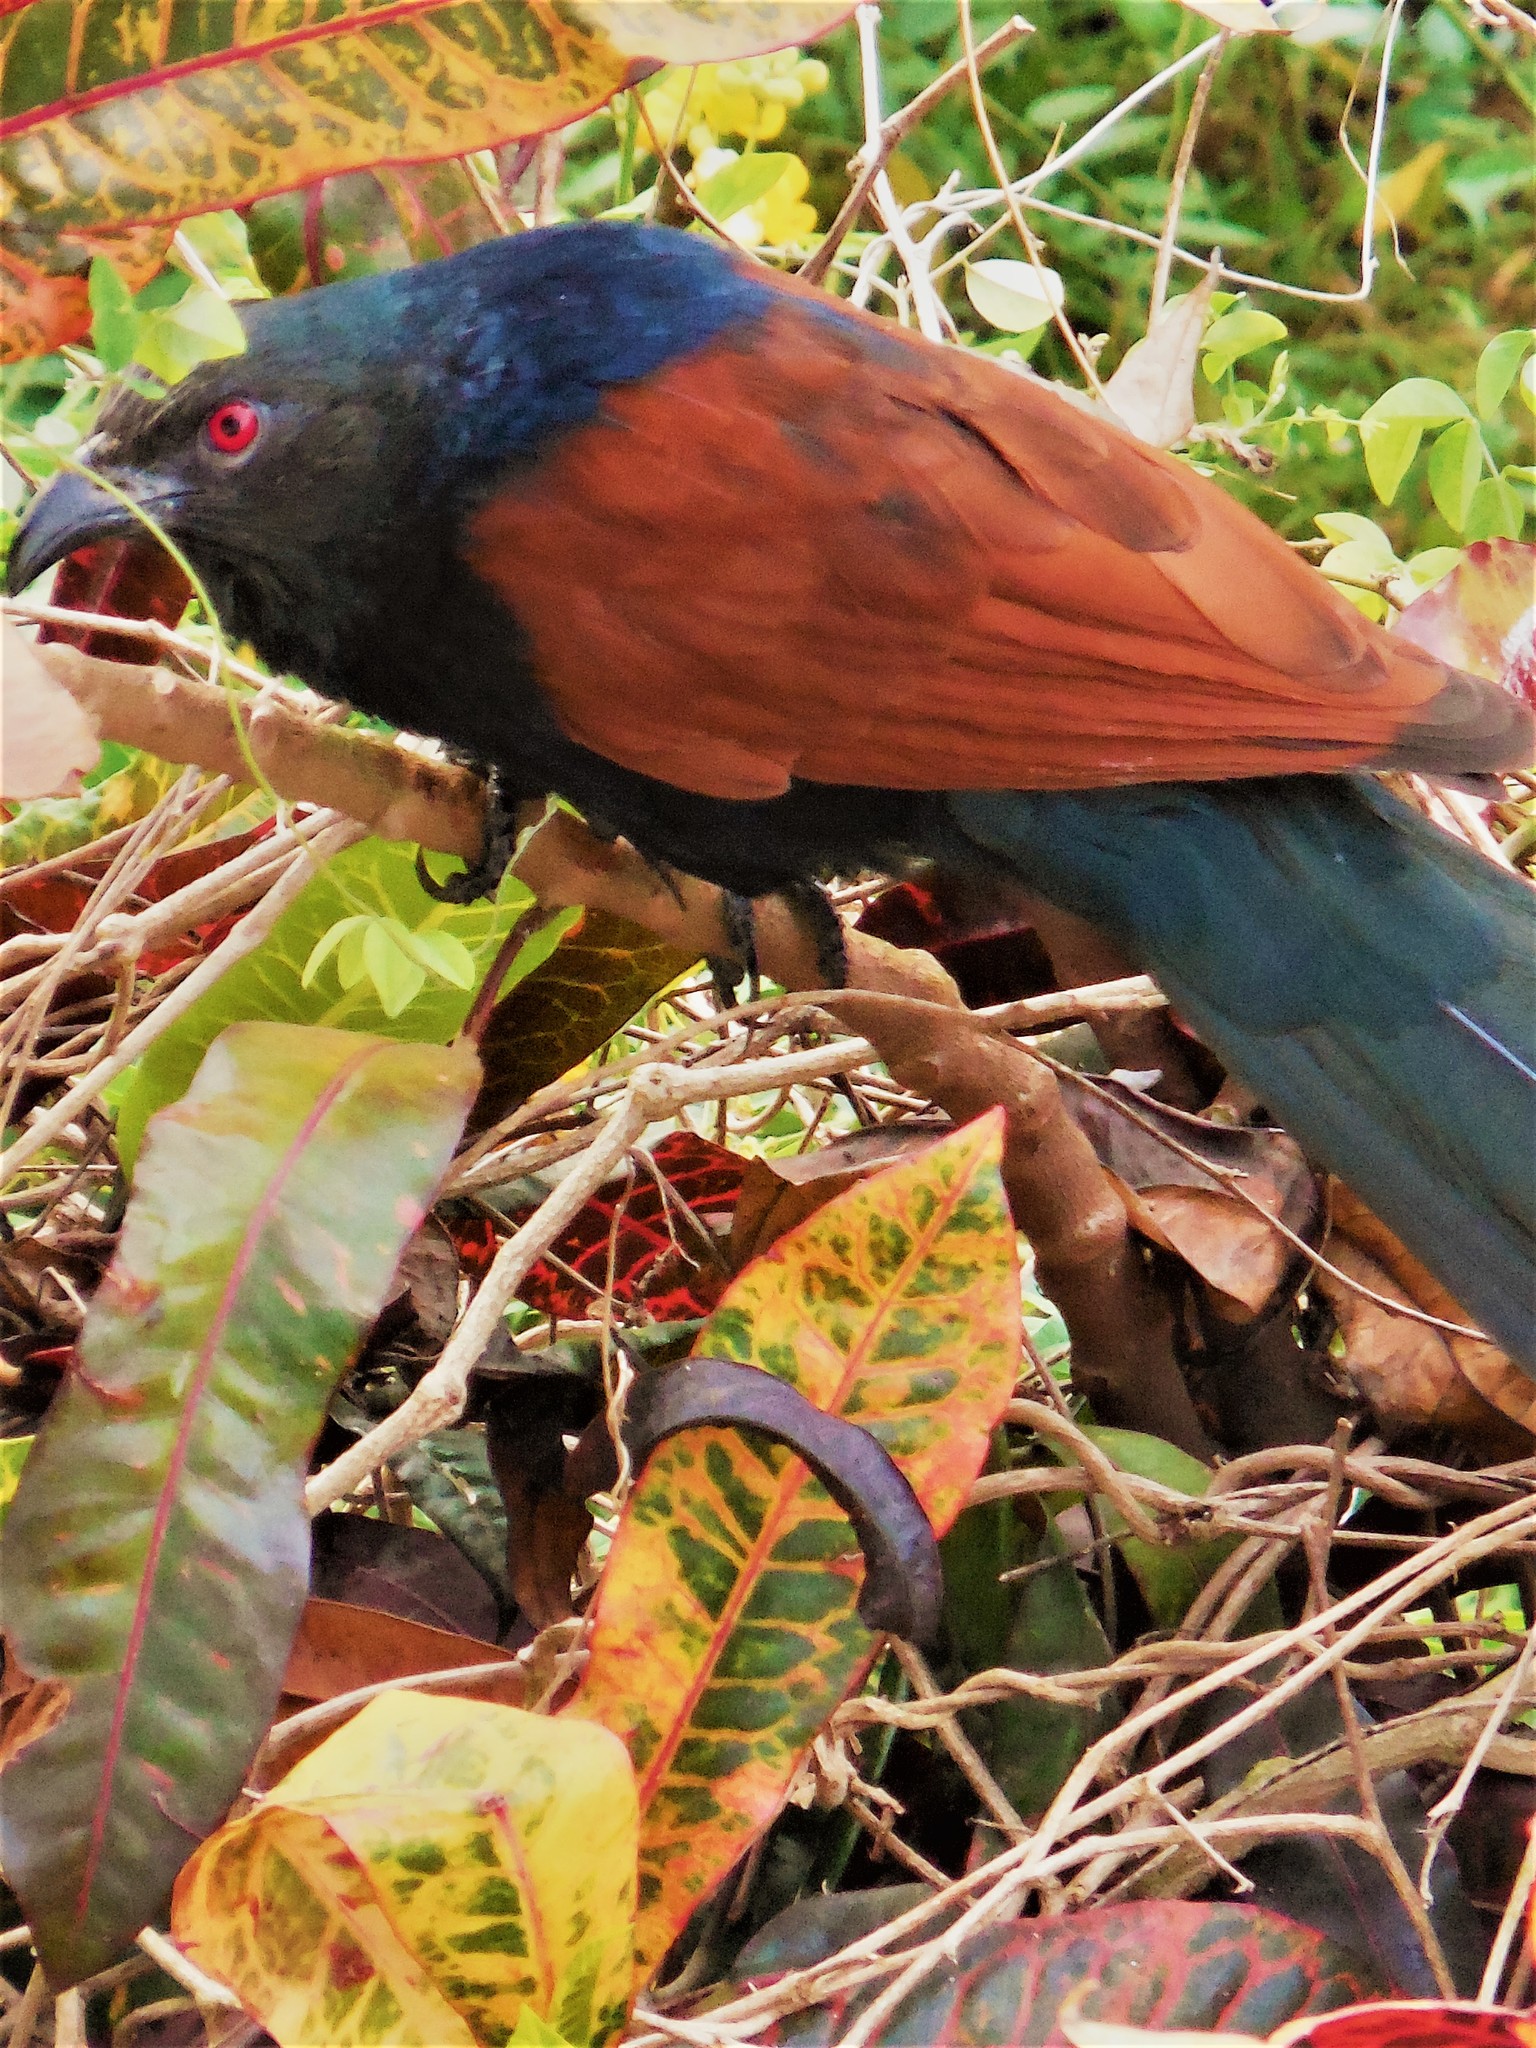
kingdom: Animalia
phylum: Chordata
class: Aves
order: Cuculiformes
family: Cuculidae
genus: Centropus
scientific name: Centropus sinensis
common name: Greater coucal
